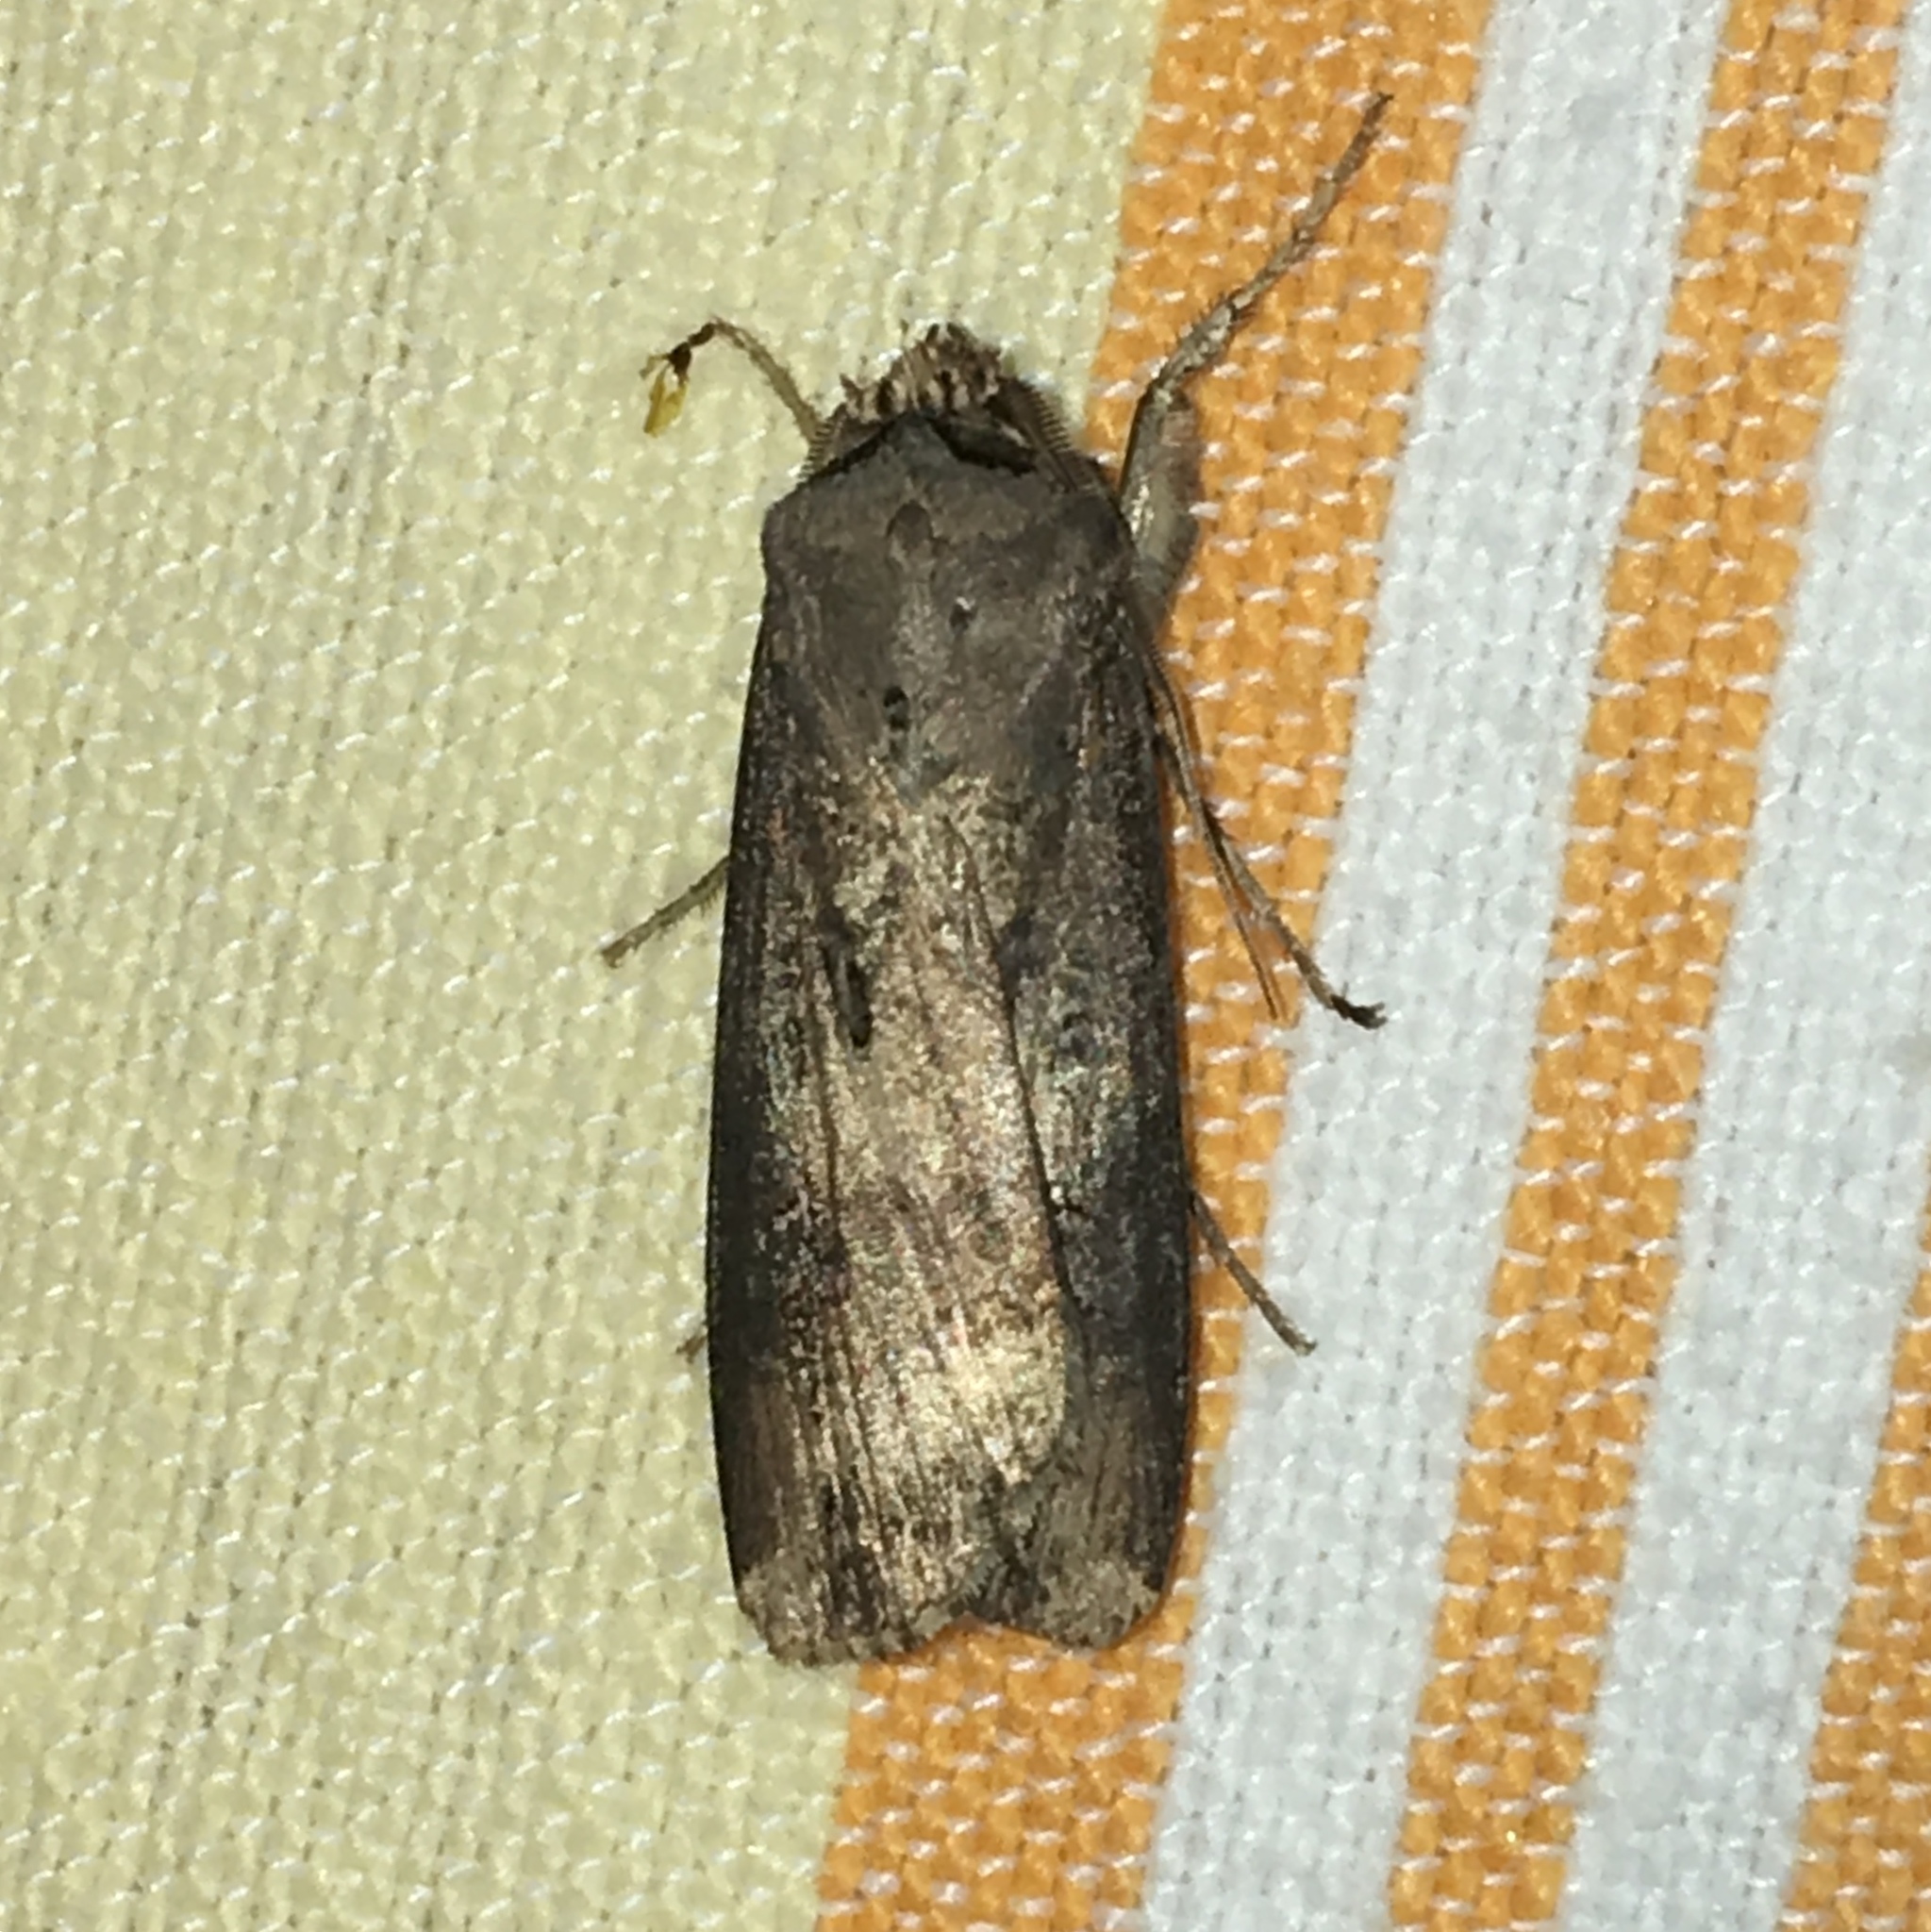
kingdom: Animalia
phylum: Arthropoda
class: Insecta
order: Lepidoptera
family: Noctuidae
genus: Agrotis
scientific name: Agrotis ipsilon
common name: Dark sword-grass
